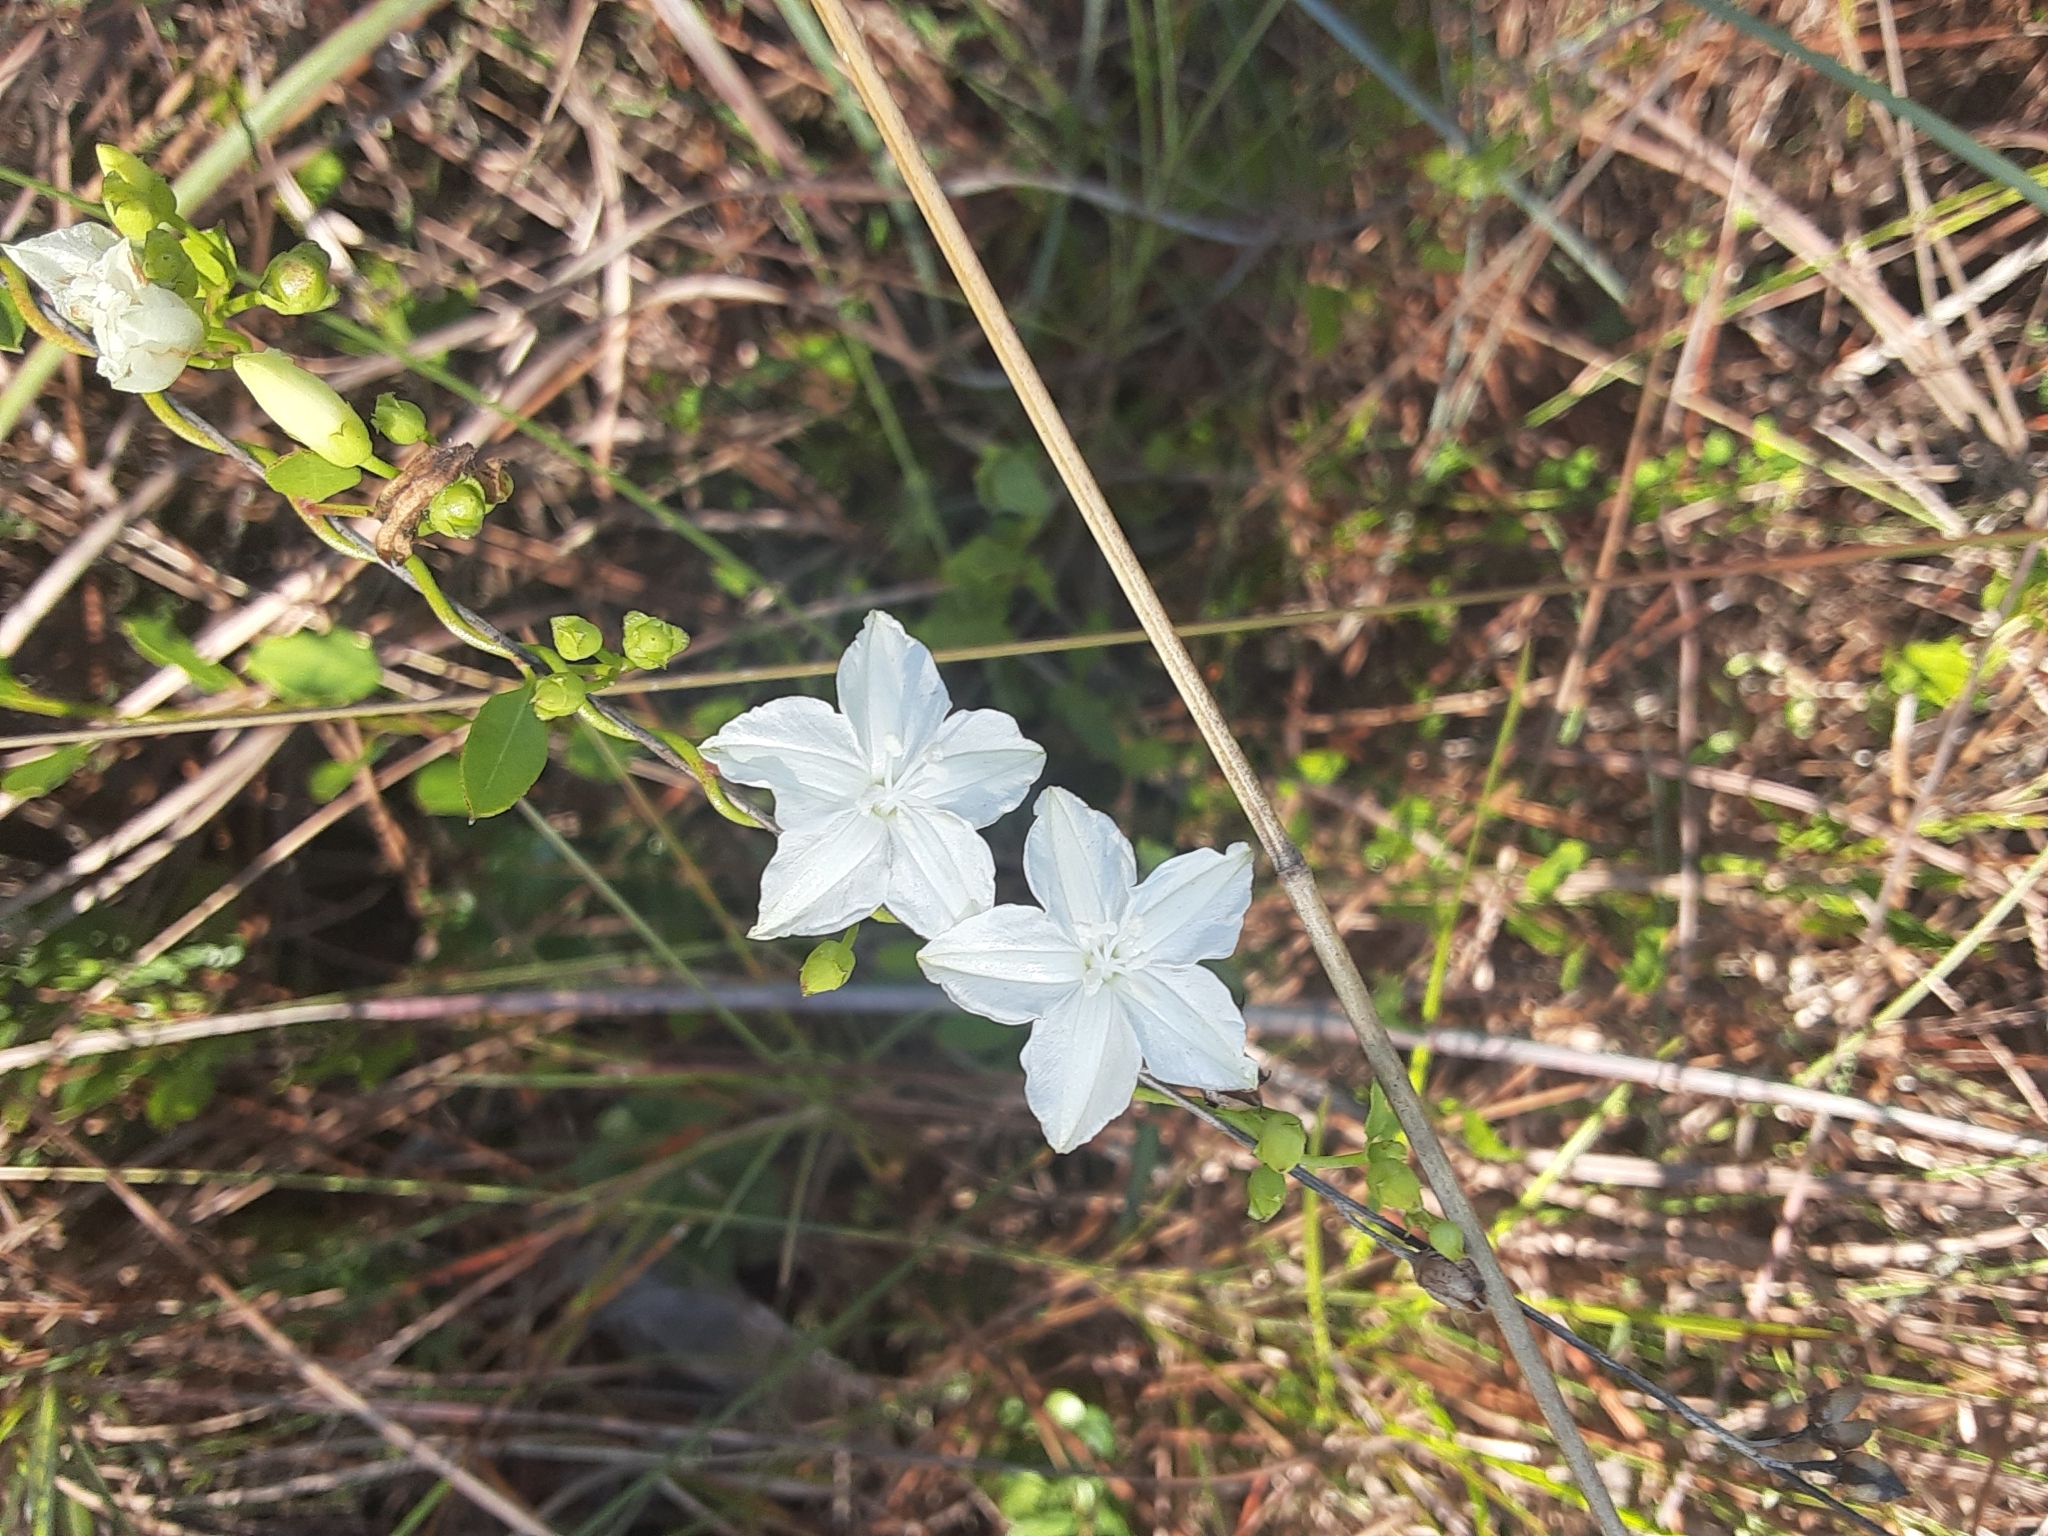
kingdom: Plantae
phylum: Tracheophyta
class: Magnoliopsida
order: Solanales
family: Convolvulaceae
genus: Jacquemontia
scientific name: Jacquemontia curtissii
